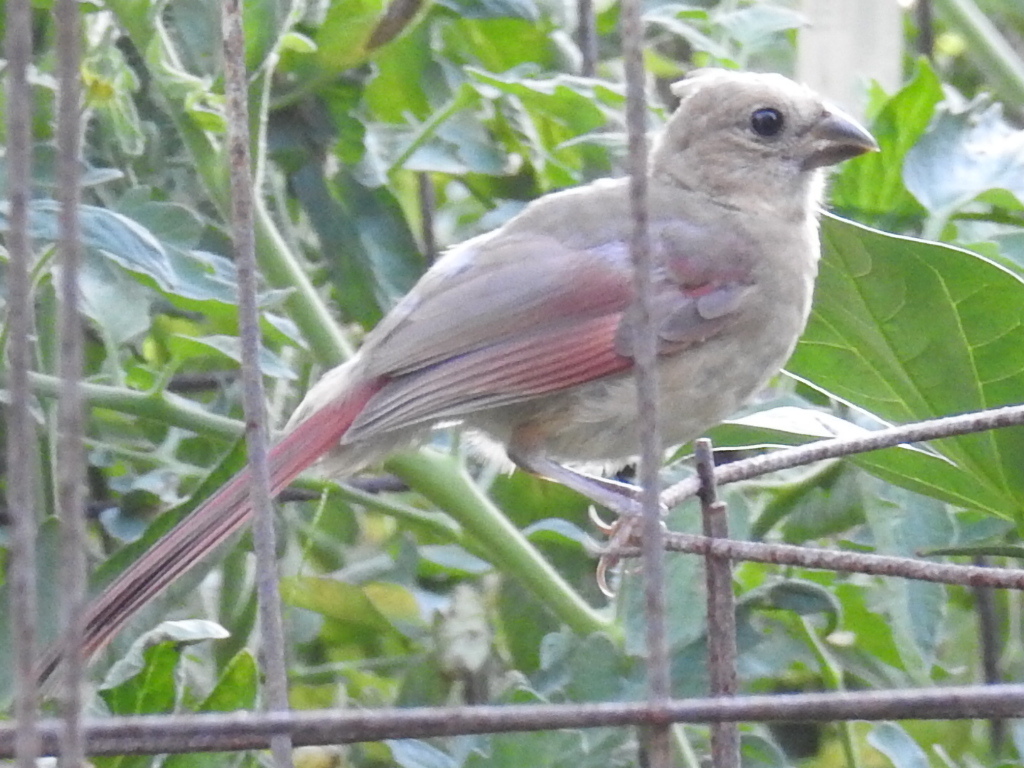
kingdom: Animalia
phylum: Chordata
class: Aves
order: Passeriformes
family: Cardinalidae
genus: Cardinalis
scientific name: Cardinalis cardinalis
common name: Northern cardinal
